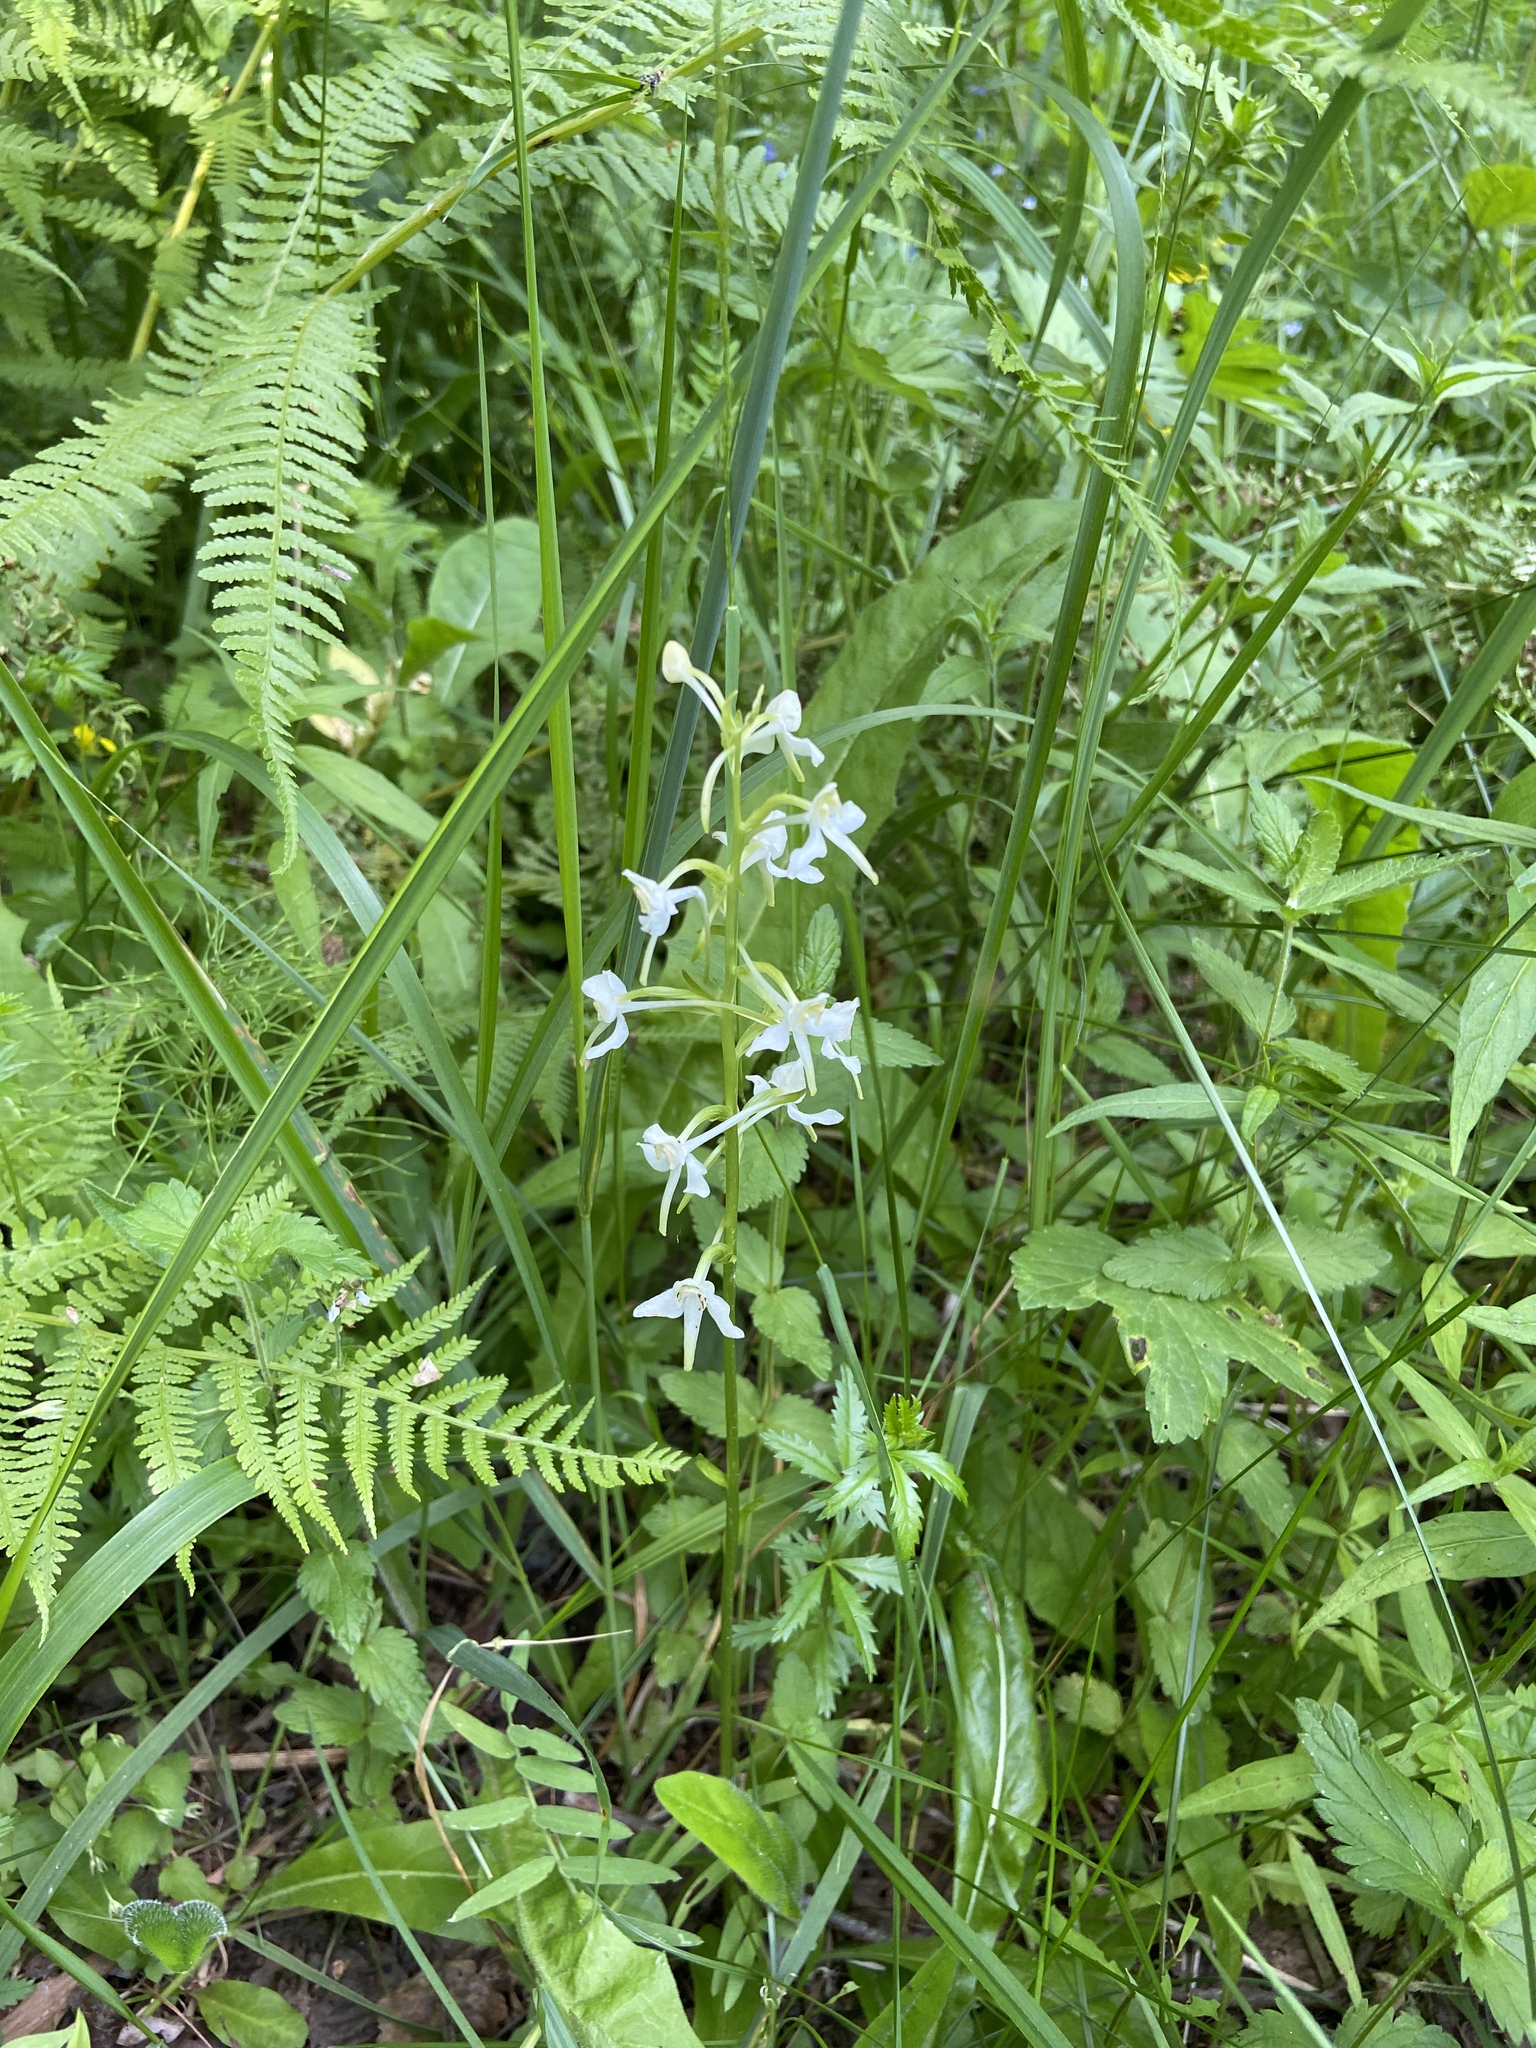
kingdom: Plantae
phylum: Tracheophyta
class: Liliopsida
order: Asparagales
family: Orchidaceae
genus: Platanthera
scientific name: Platanthera chlorantha
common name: Greater butterfly-orchid
